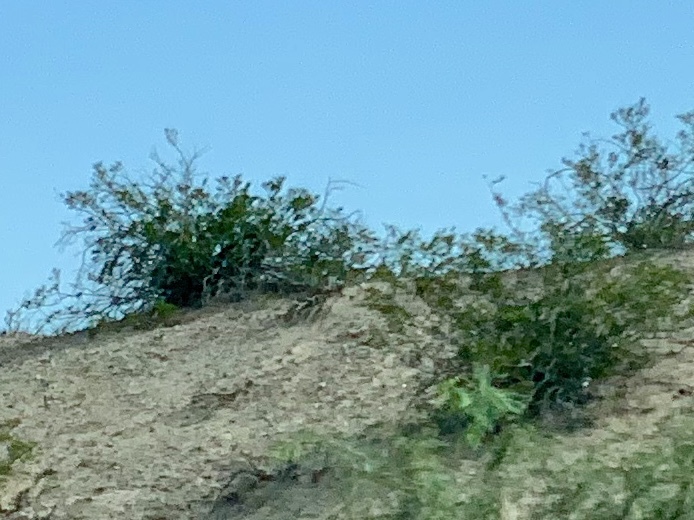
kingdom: Plantae
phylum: Tracheophyta
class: Magnoliopsida
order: Zygophyllales
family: Zygophyllaceae
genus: Larrea
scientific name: Larrea tridentata
